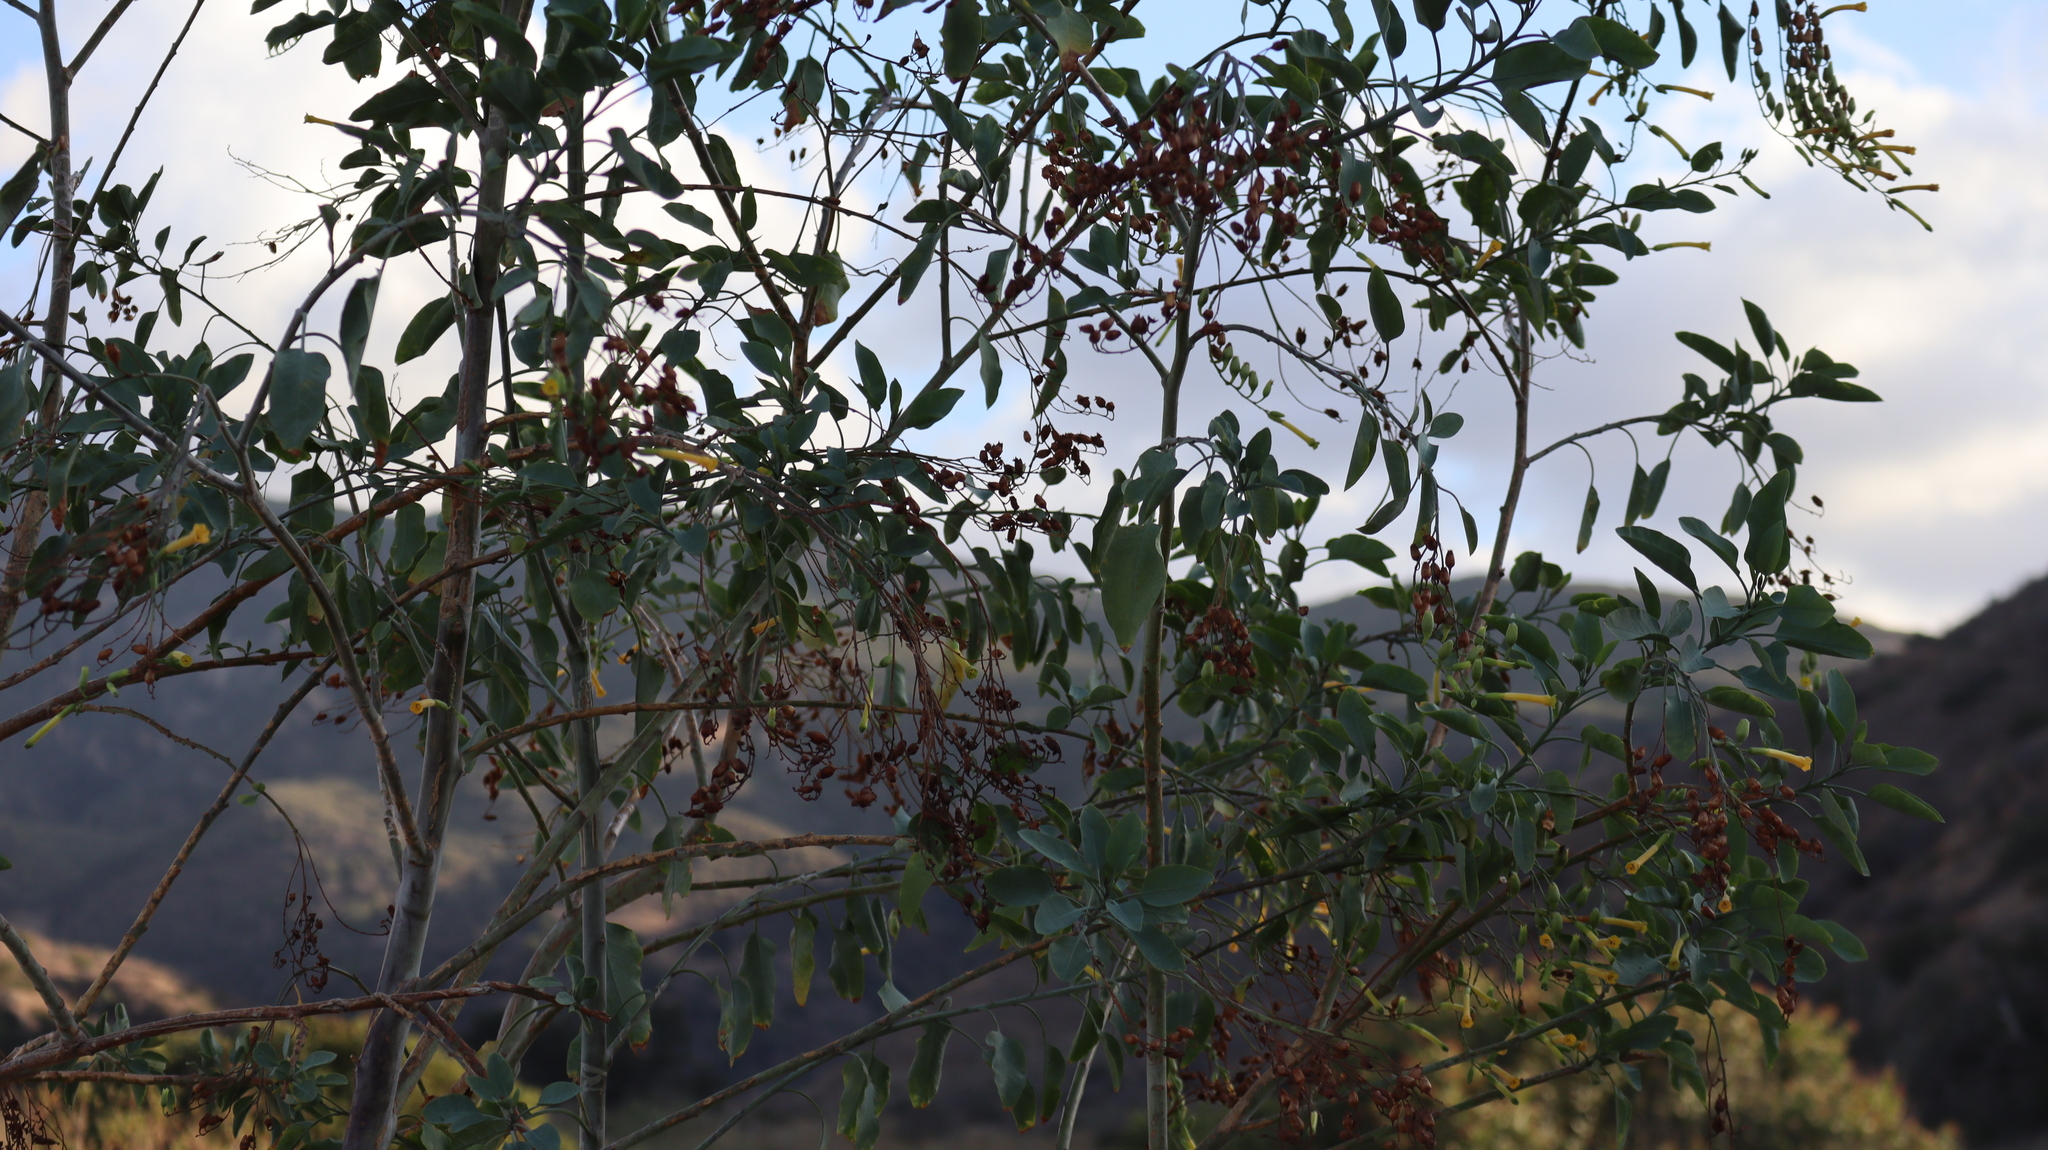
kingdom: Plantae
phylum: Tracheophyta
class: Magnoliopsida
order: Solanales
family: Solanaceae
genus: Nicotiana
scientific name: Nicotiana glauca
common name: Tree tobacco
